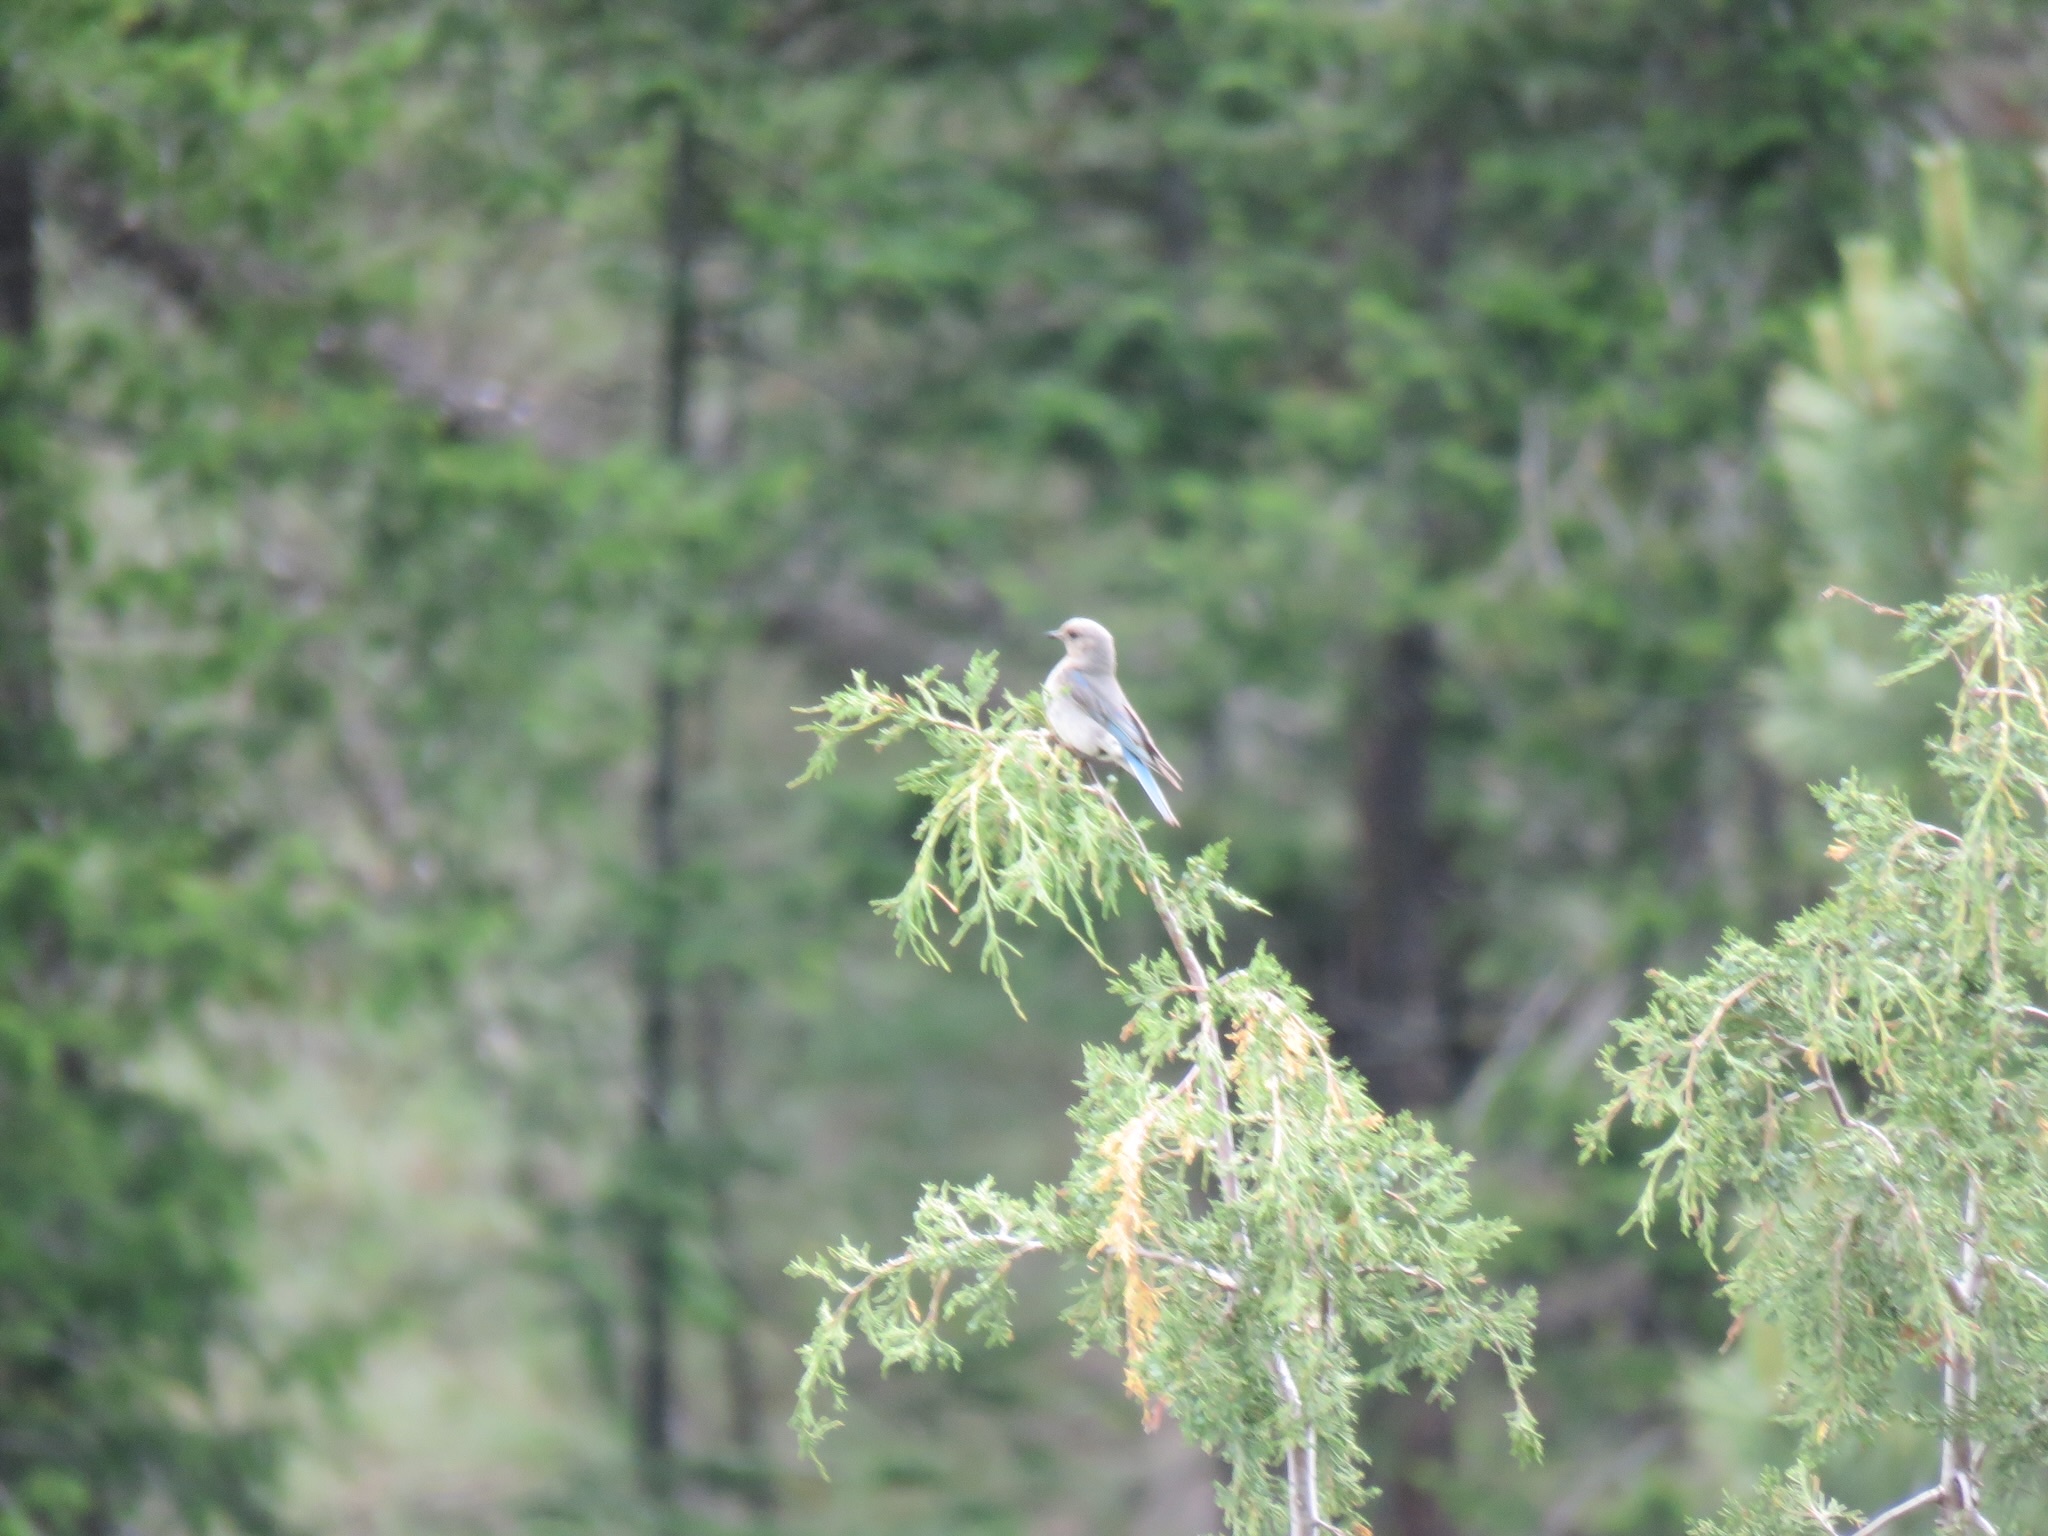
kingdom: Animalia
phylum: Chordata
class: Aves
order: Passeriformes
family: Turdidae
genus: Sialia
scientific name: Sialia currucoides
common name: Mountain bluebird
